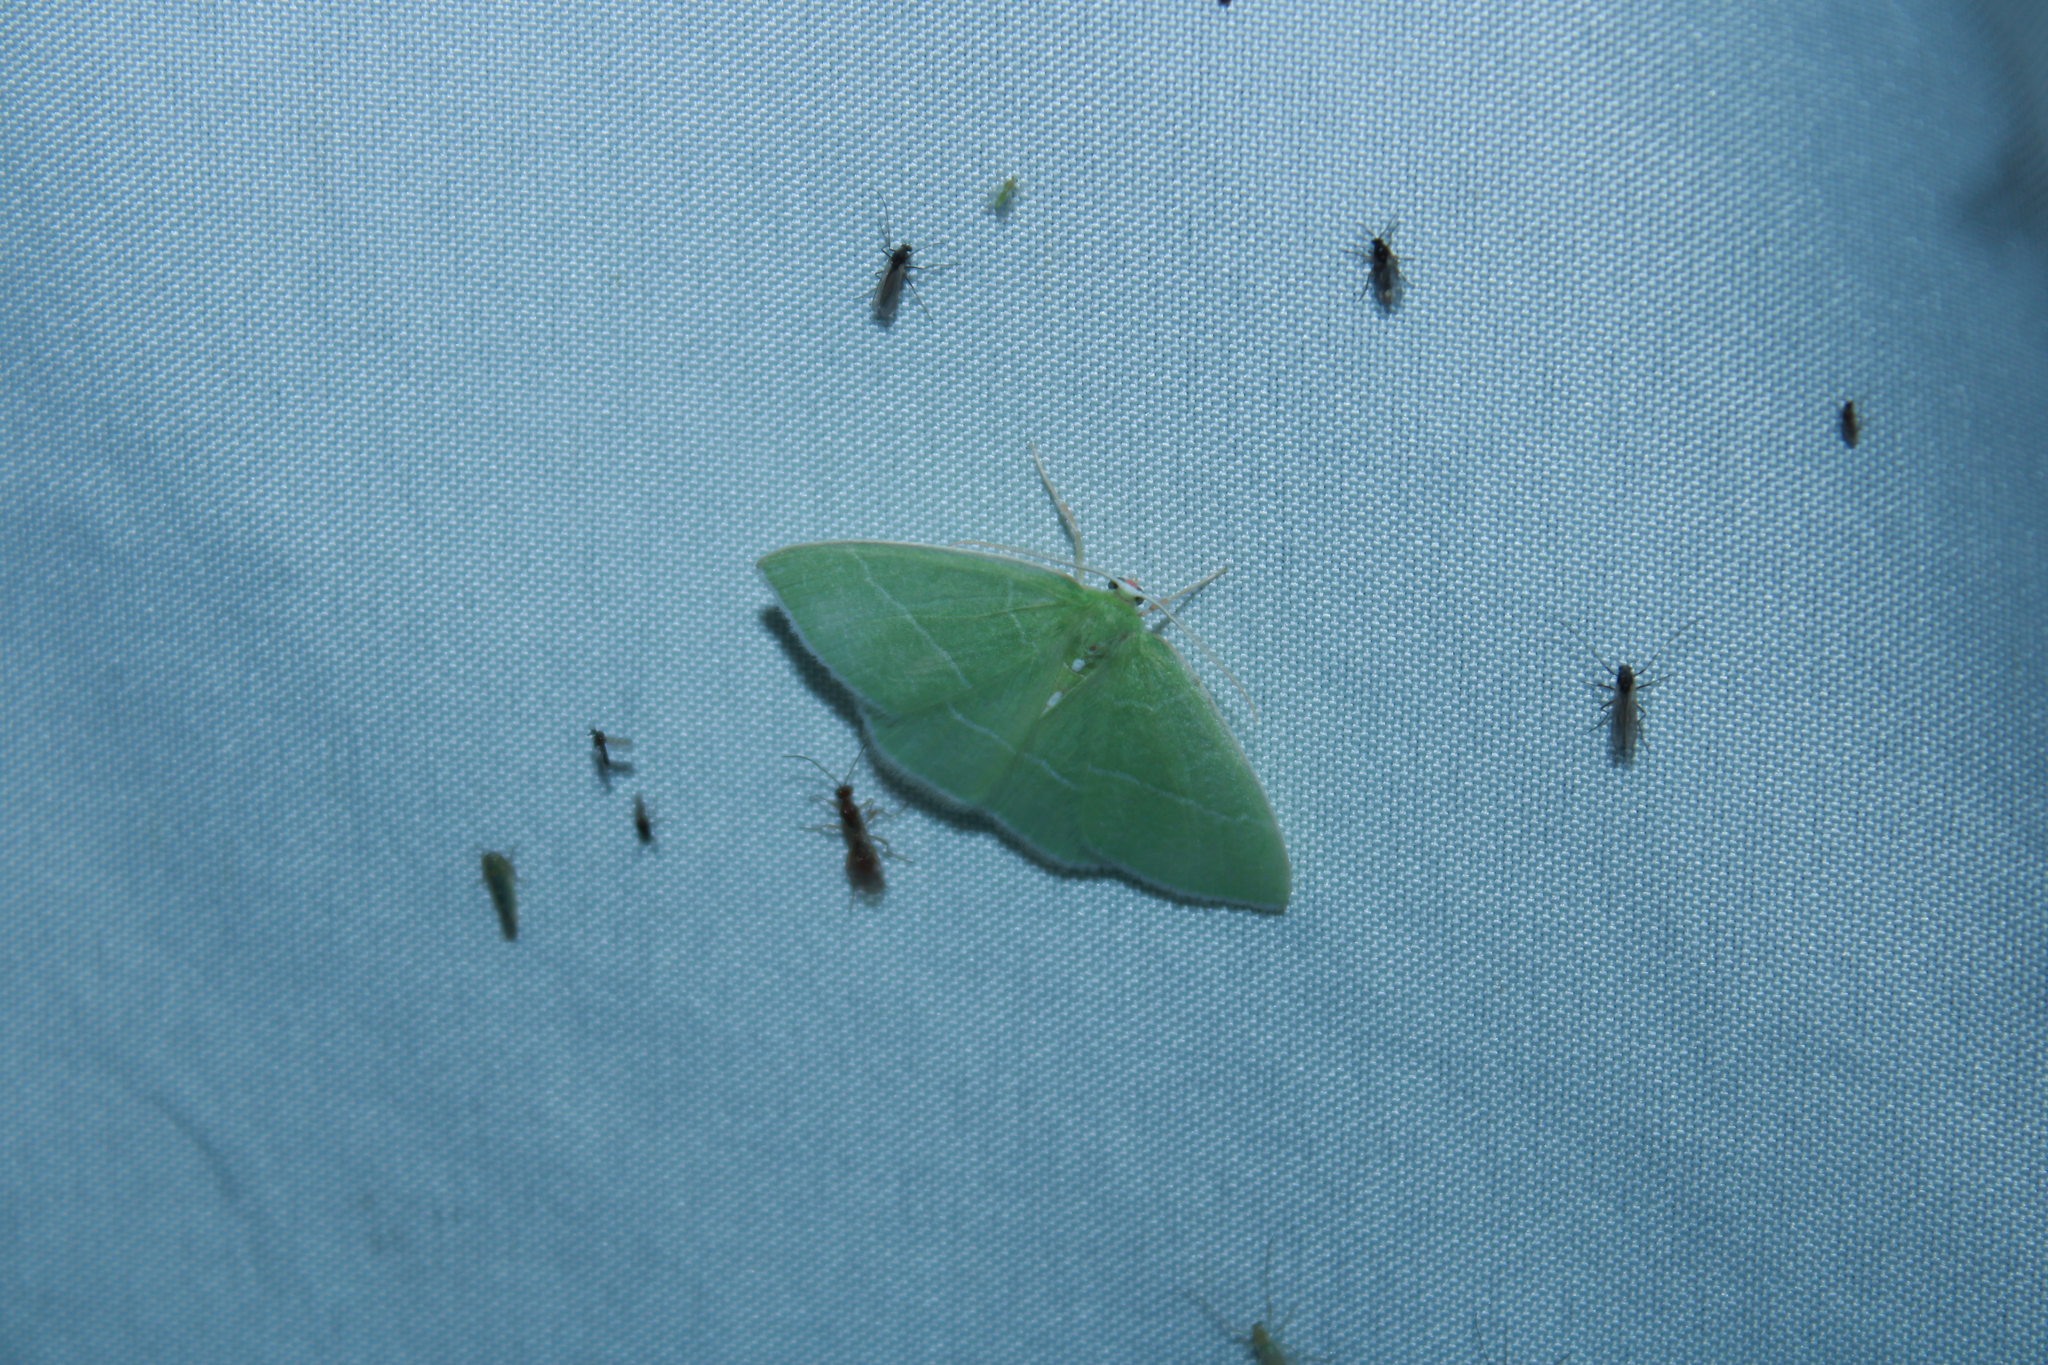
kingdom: Animalia
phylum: Arthropoda
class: Insecta
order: Lepidoptera
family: Geometridae
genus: Nemoria
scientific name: Nemoria mimosaria
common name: White-fringed emerald
